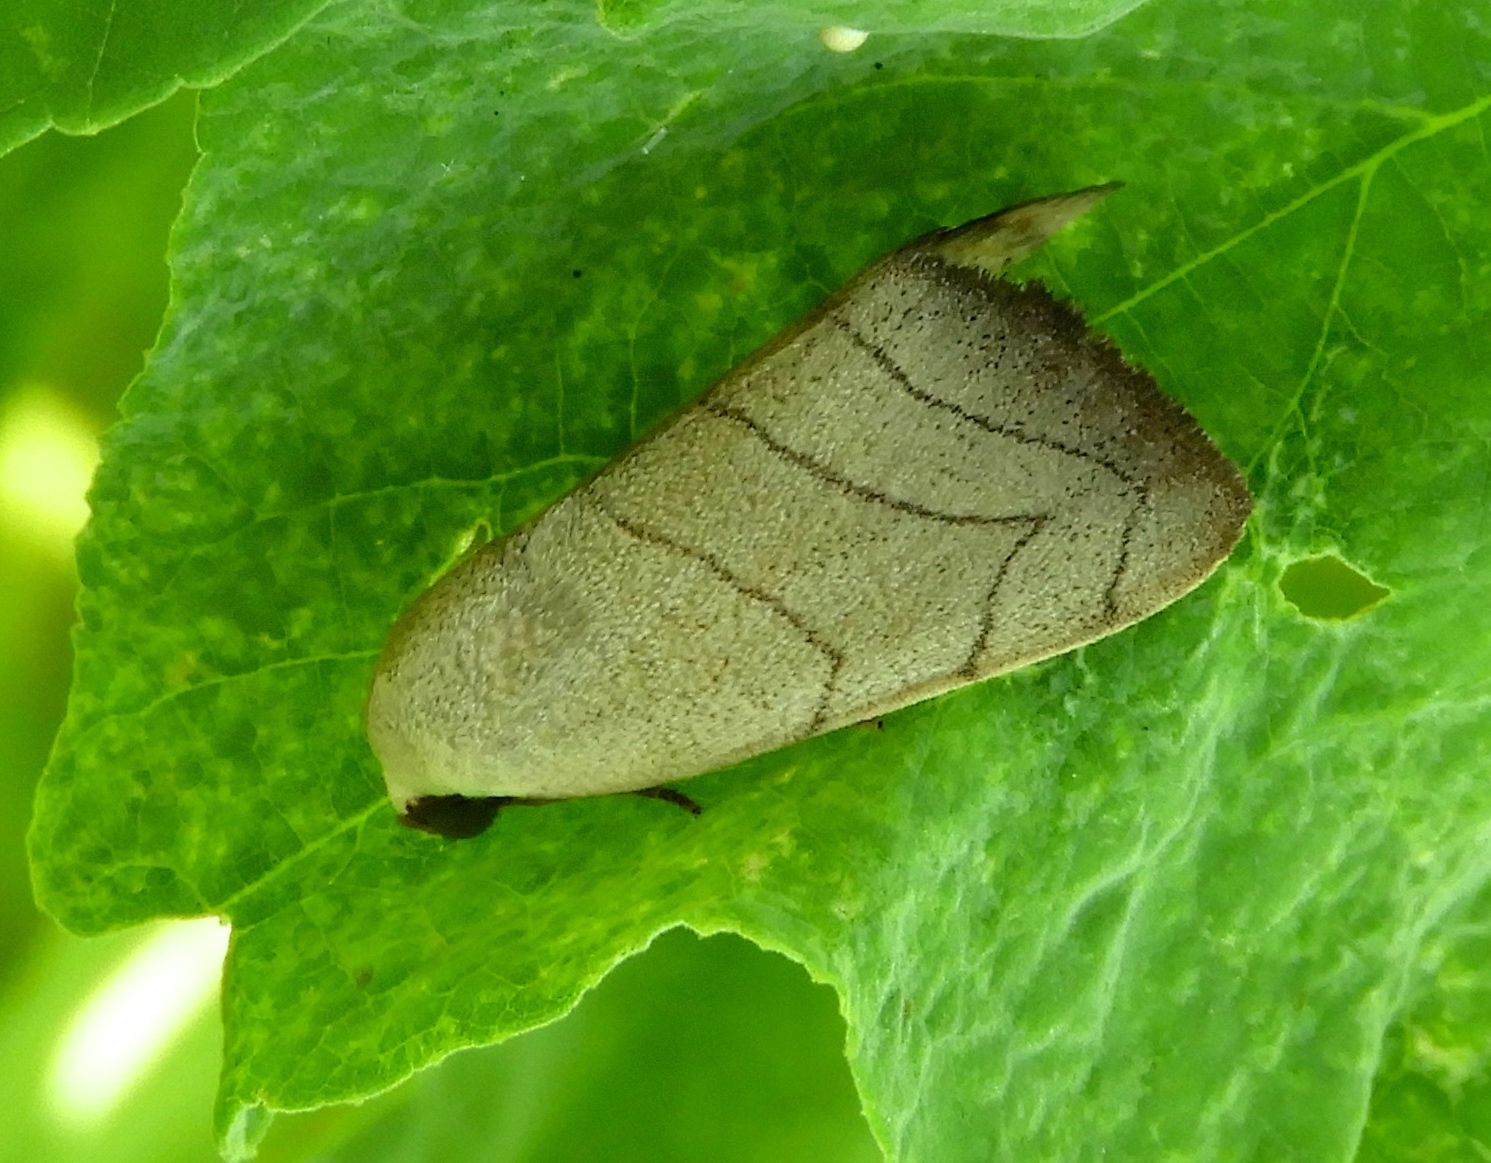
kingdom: Animalia
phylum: Arthropoda
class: Insecta
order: Lepidoptera
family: Noctuidae
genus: Bagisara
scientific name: Bagisara
